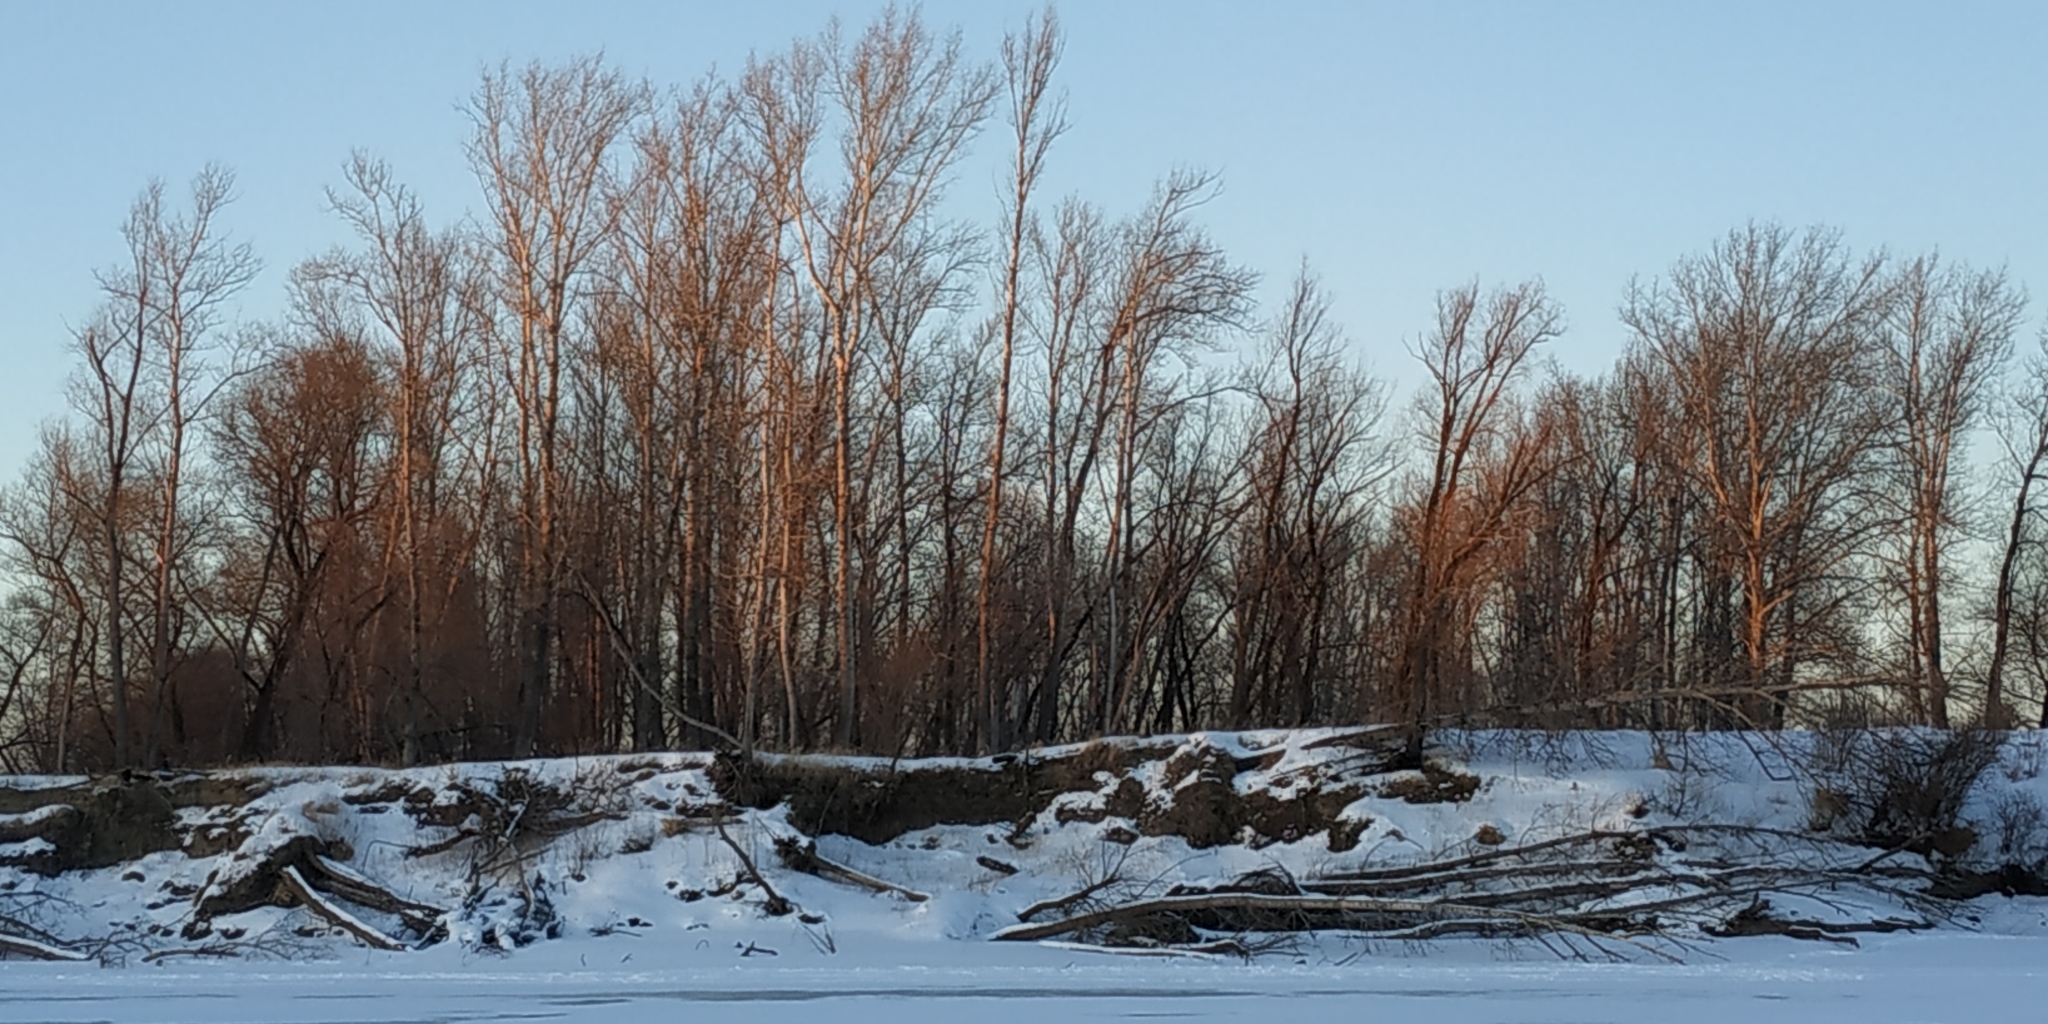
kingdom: Plantae
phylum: Tracheophyta
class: Magnoliopsida
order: Malpighiales
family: Salicaceae
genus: Populus
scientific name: Populus tremula
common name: European aspen
